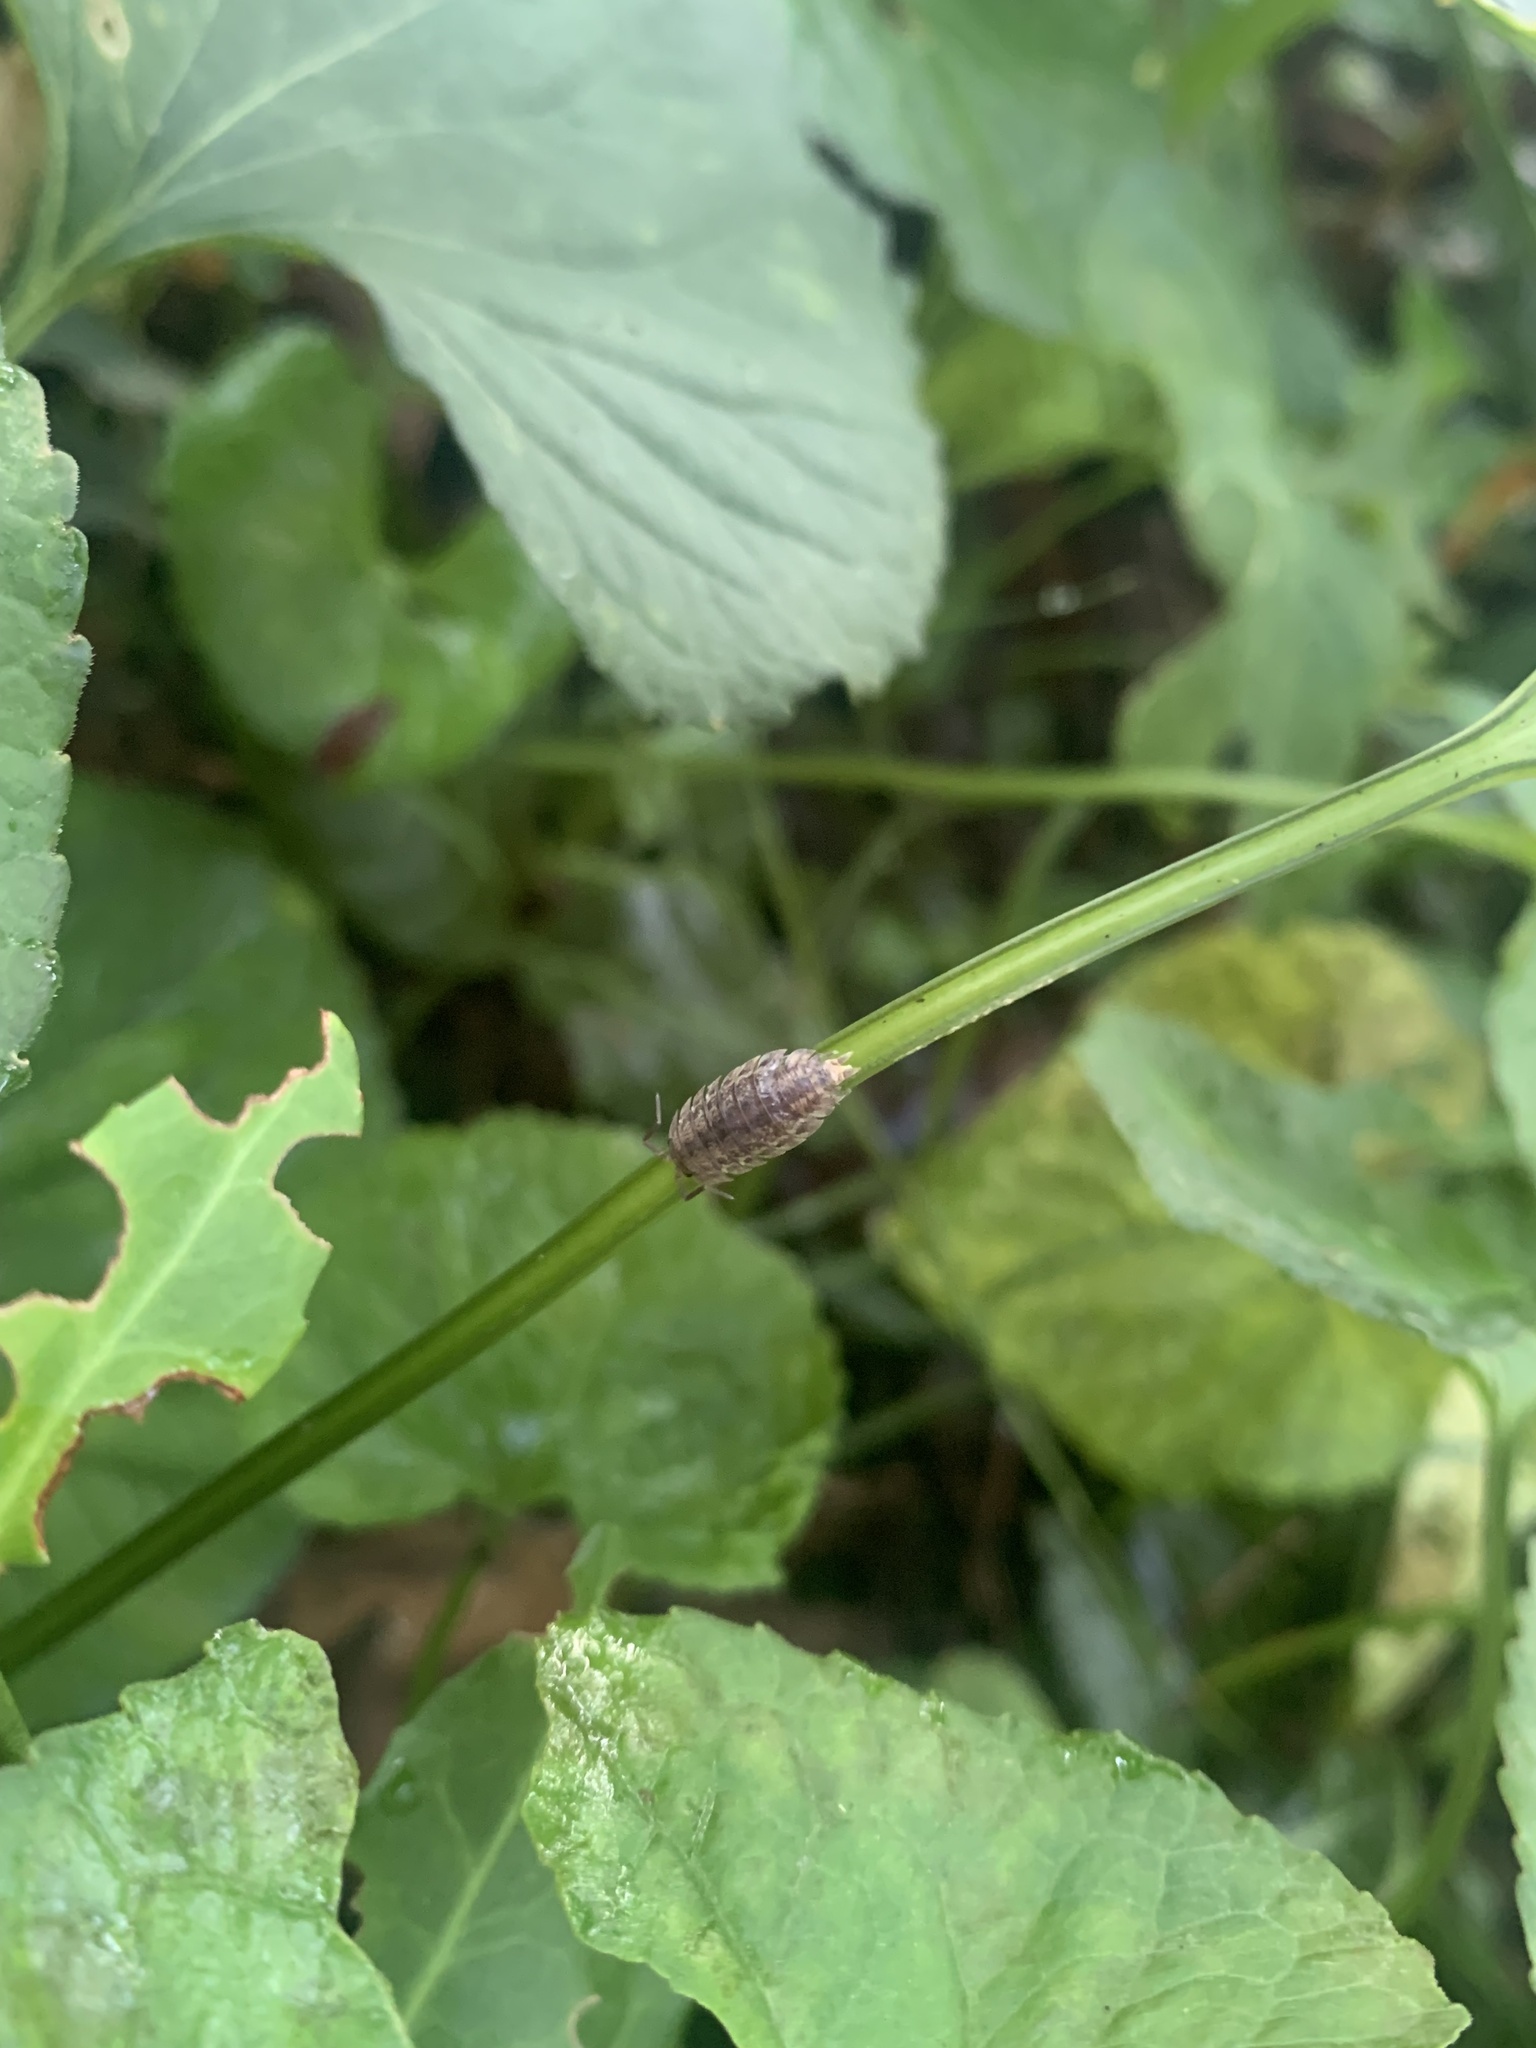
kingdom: Animalia
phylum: Arthropoda
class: Malacostraca
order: Isopoda
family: Trachelipodidae
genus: Trachelipus
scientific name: Trachelipus rathkii
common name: Isopod
